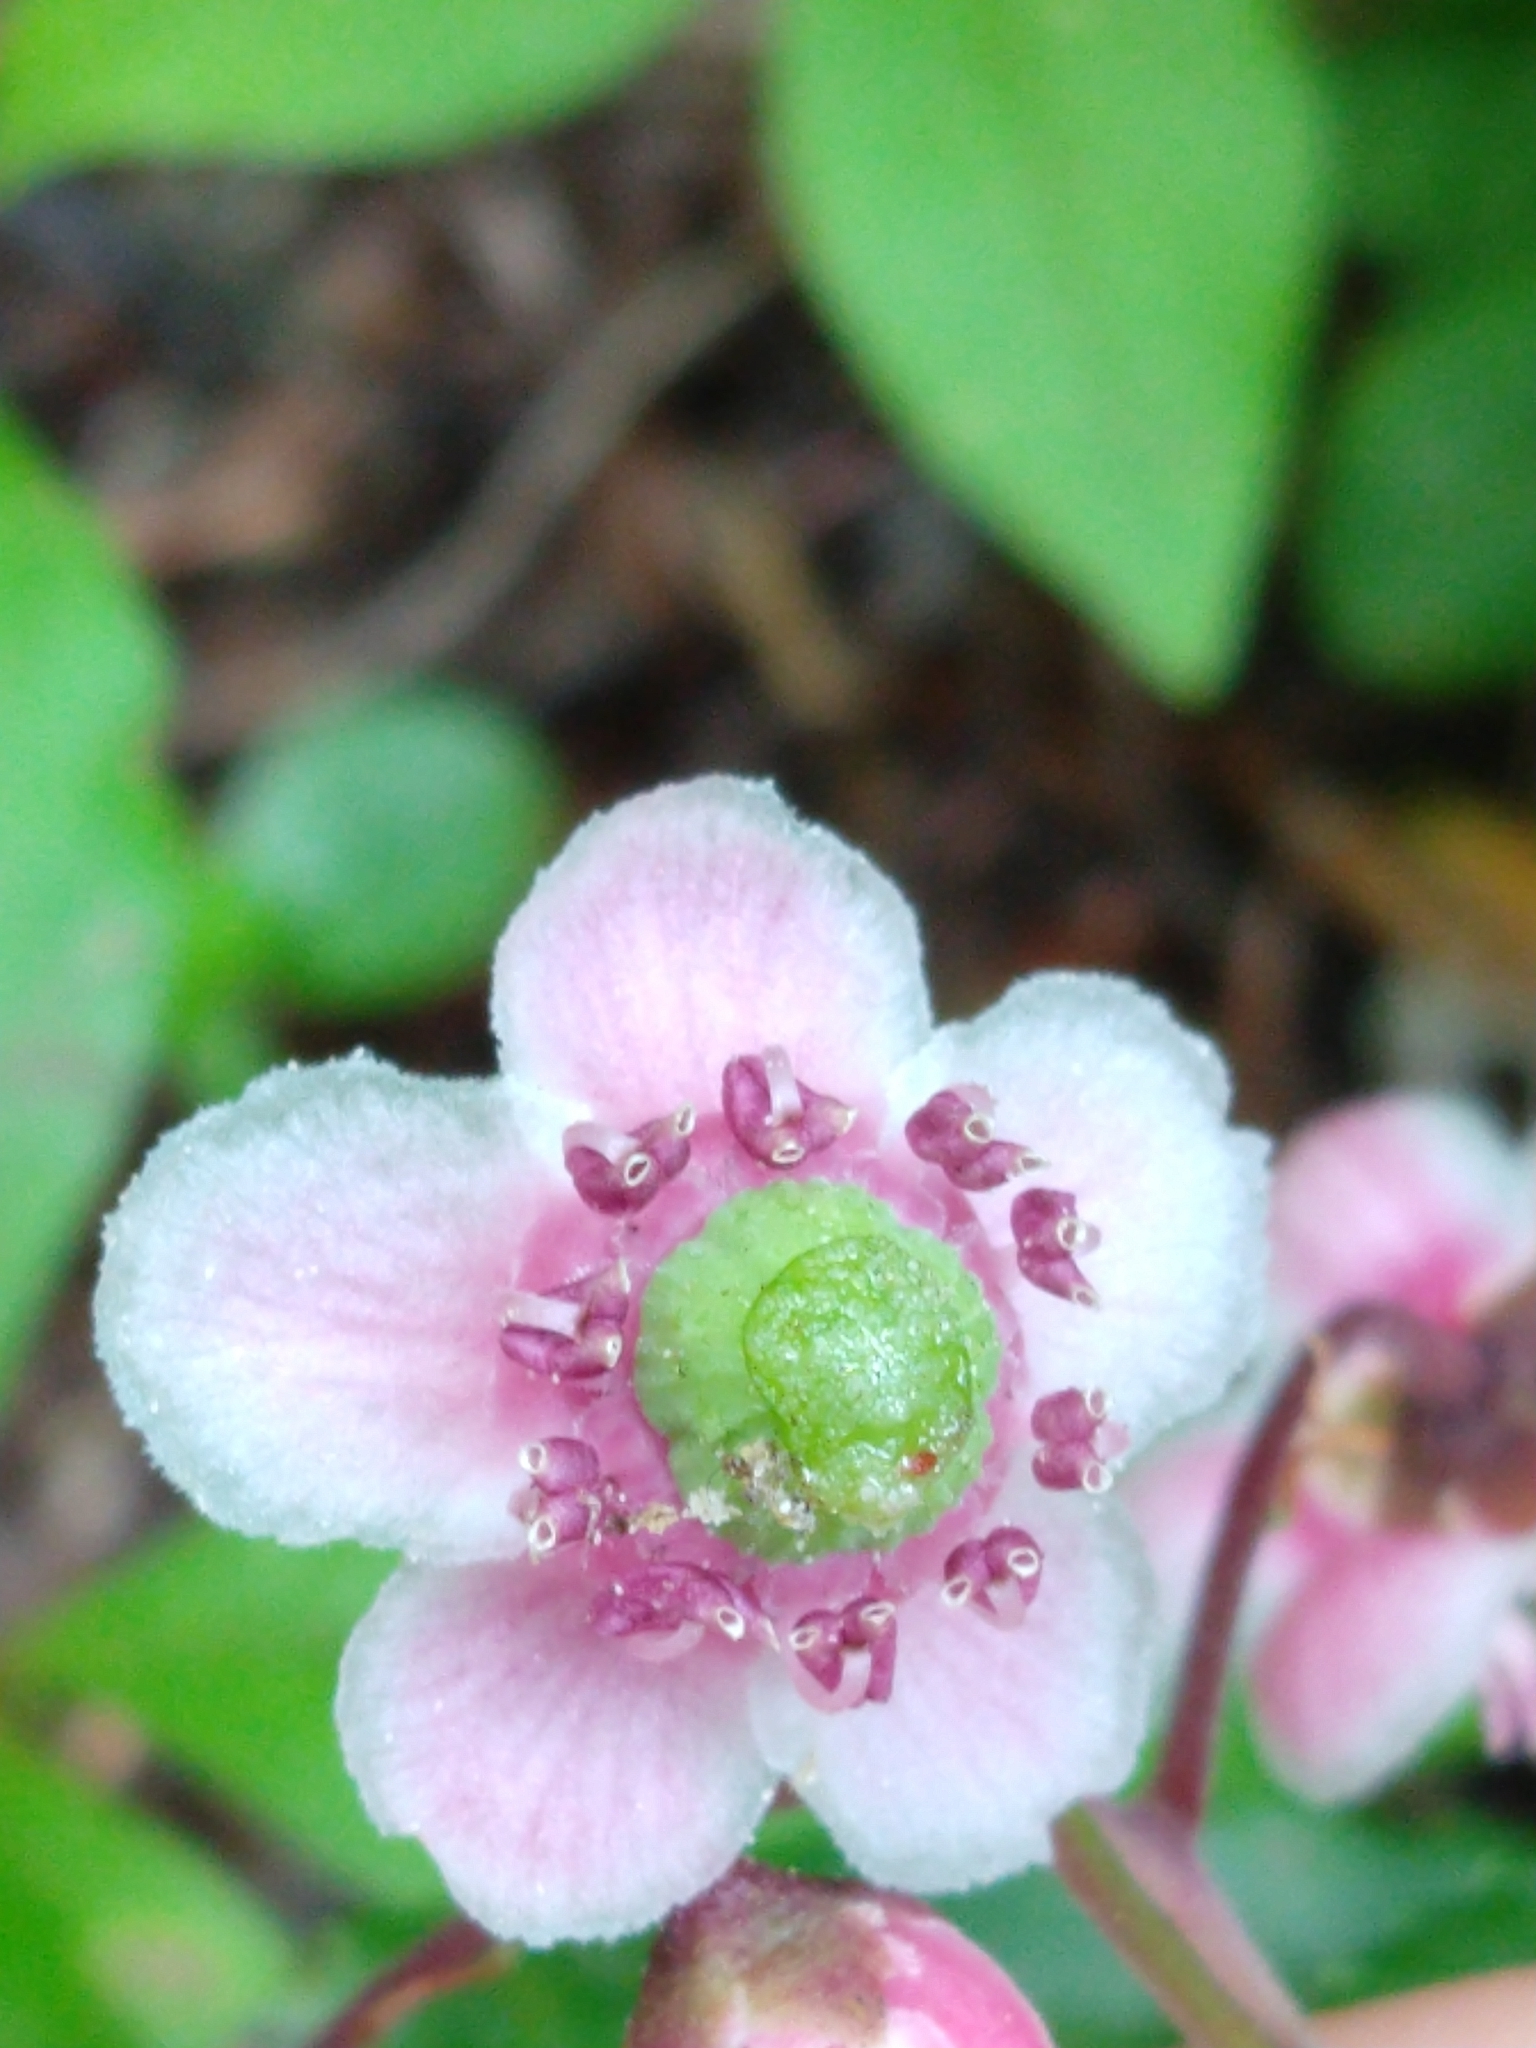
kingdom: Plantae
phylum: Tracheophyta
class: Magnoliopsida
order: Ericales
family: Ericaceae
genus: Chimaphila
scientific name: Chimaphila umbellata
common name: Pipsissewa
